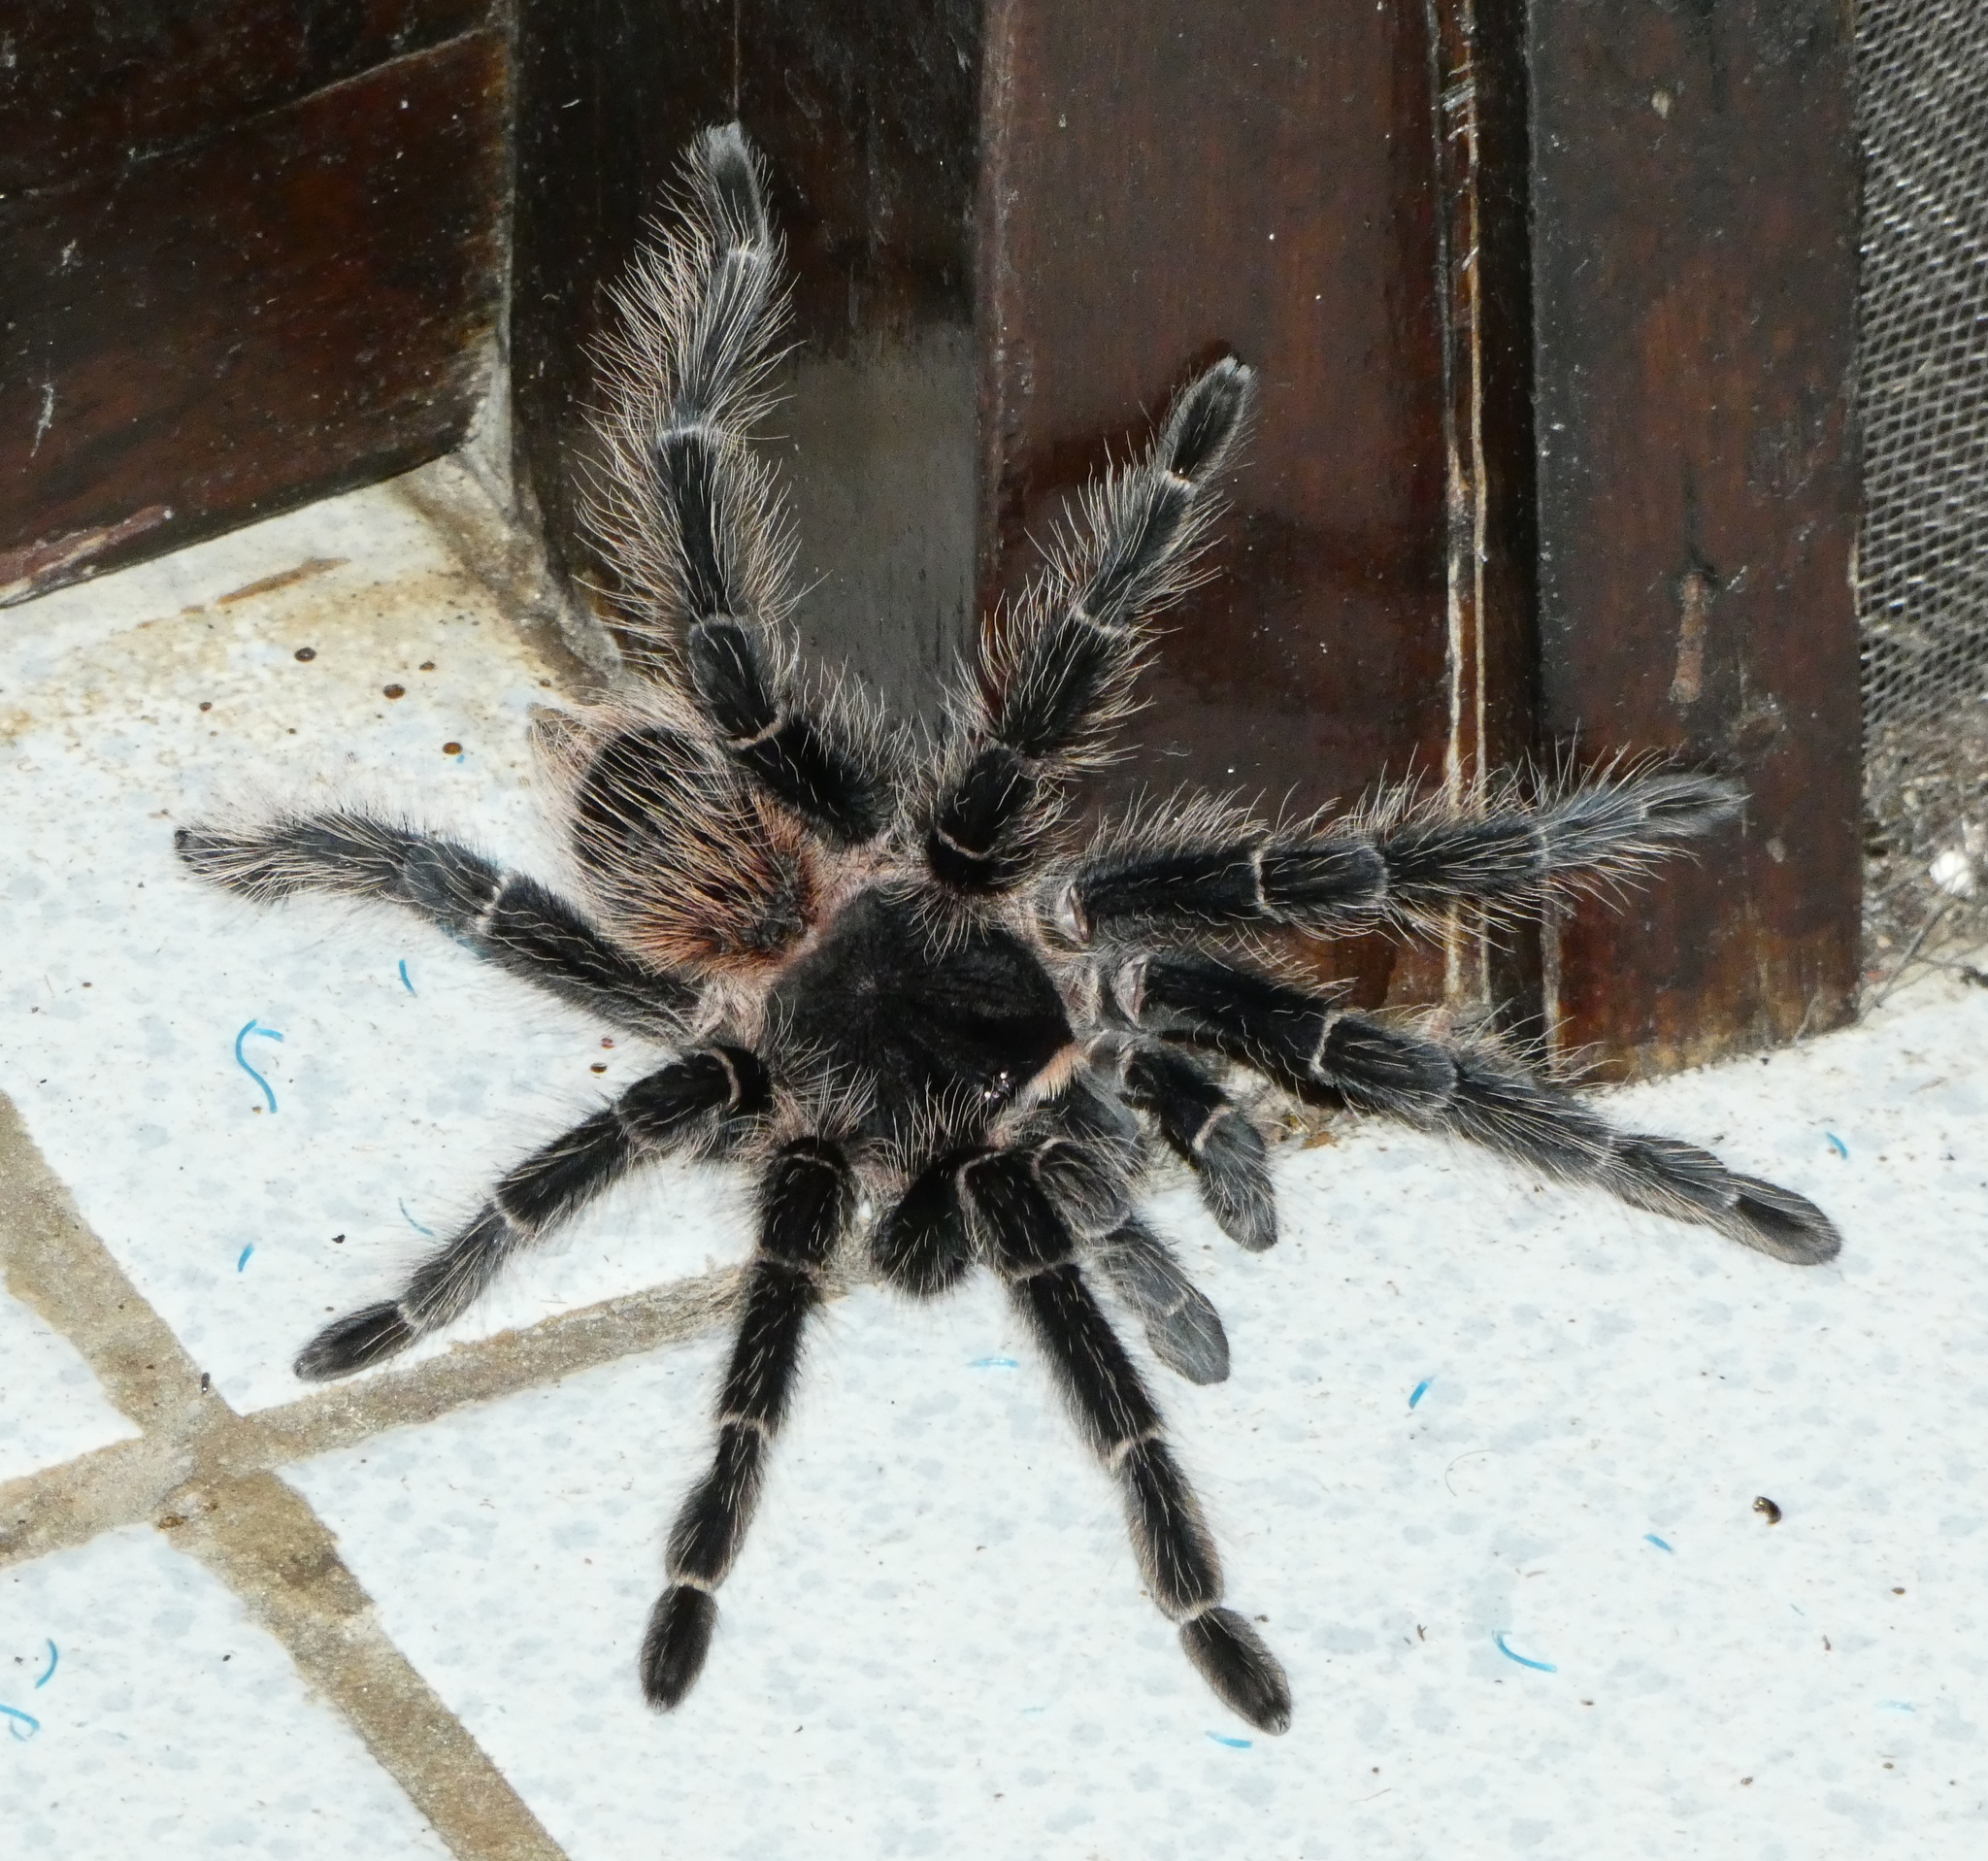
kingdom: Animalia
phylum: Arthropoda
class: Arachnida
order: Araneae
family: Theraphosidae
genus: Lasiodora
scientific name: Lasiodora parahybana
